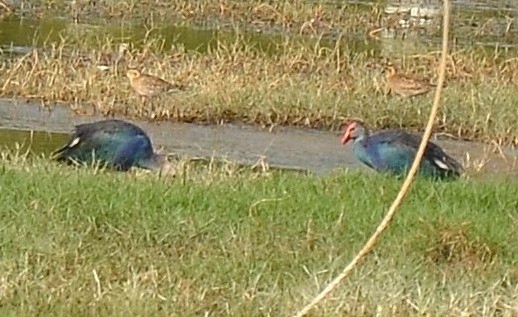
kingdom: Animalia
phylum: Chordata
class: Aves
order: Gruiformes
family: Rallidae
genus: Porphyrio
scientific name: Porphyrio porphyrio
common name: Purple swamphen
